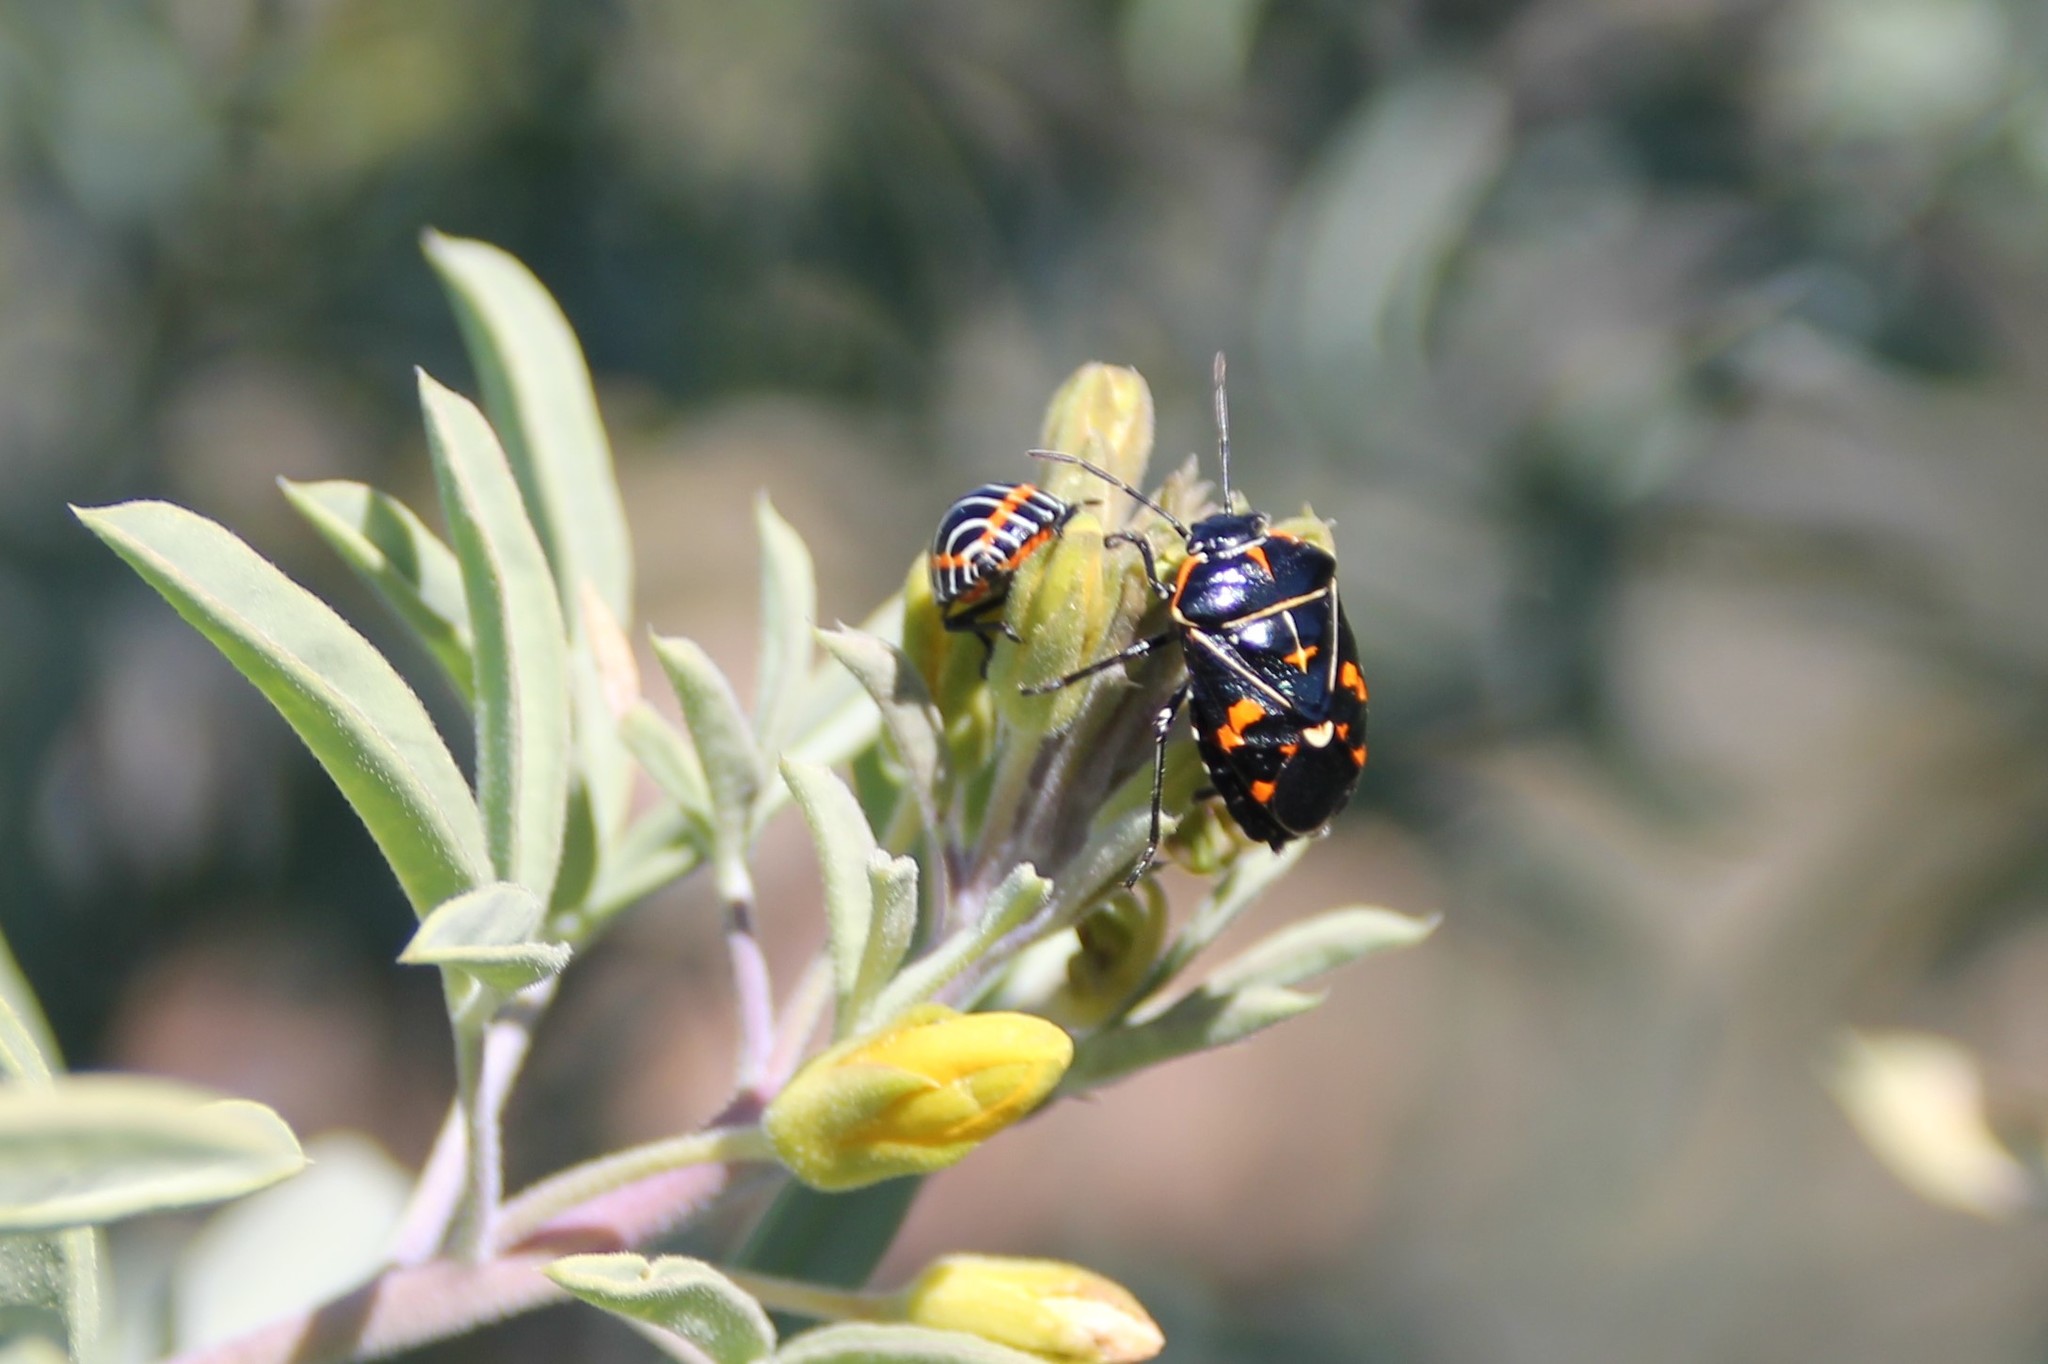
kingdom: Animalia
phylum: Arthropoda
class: Insecta
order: Hemiptera
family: Pentatomidae
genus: Murgantia
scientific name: Murgantia histrionica
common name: Harlequin bug
